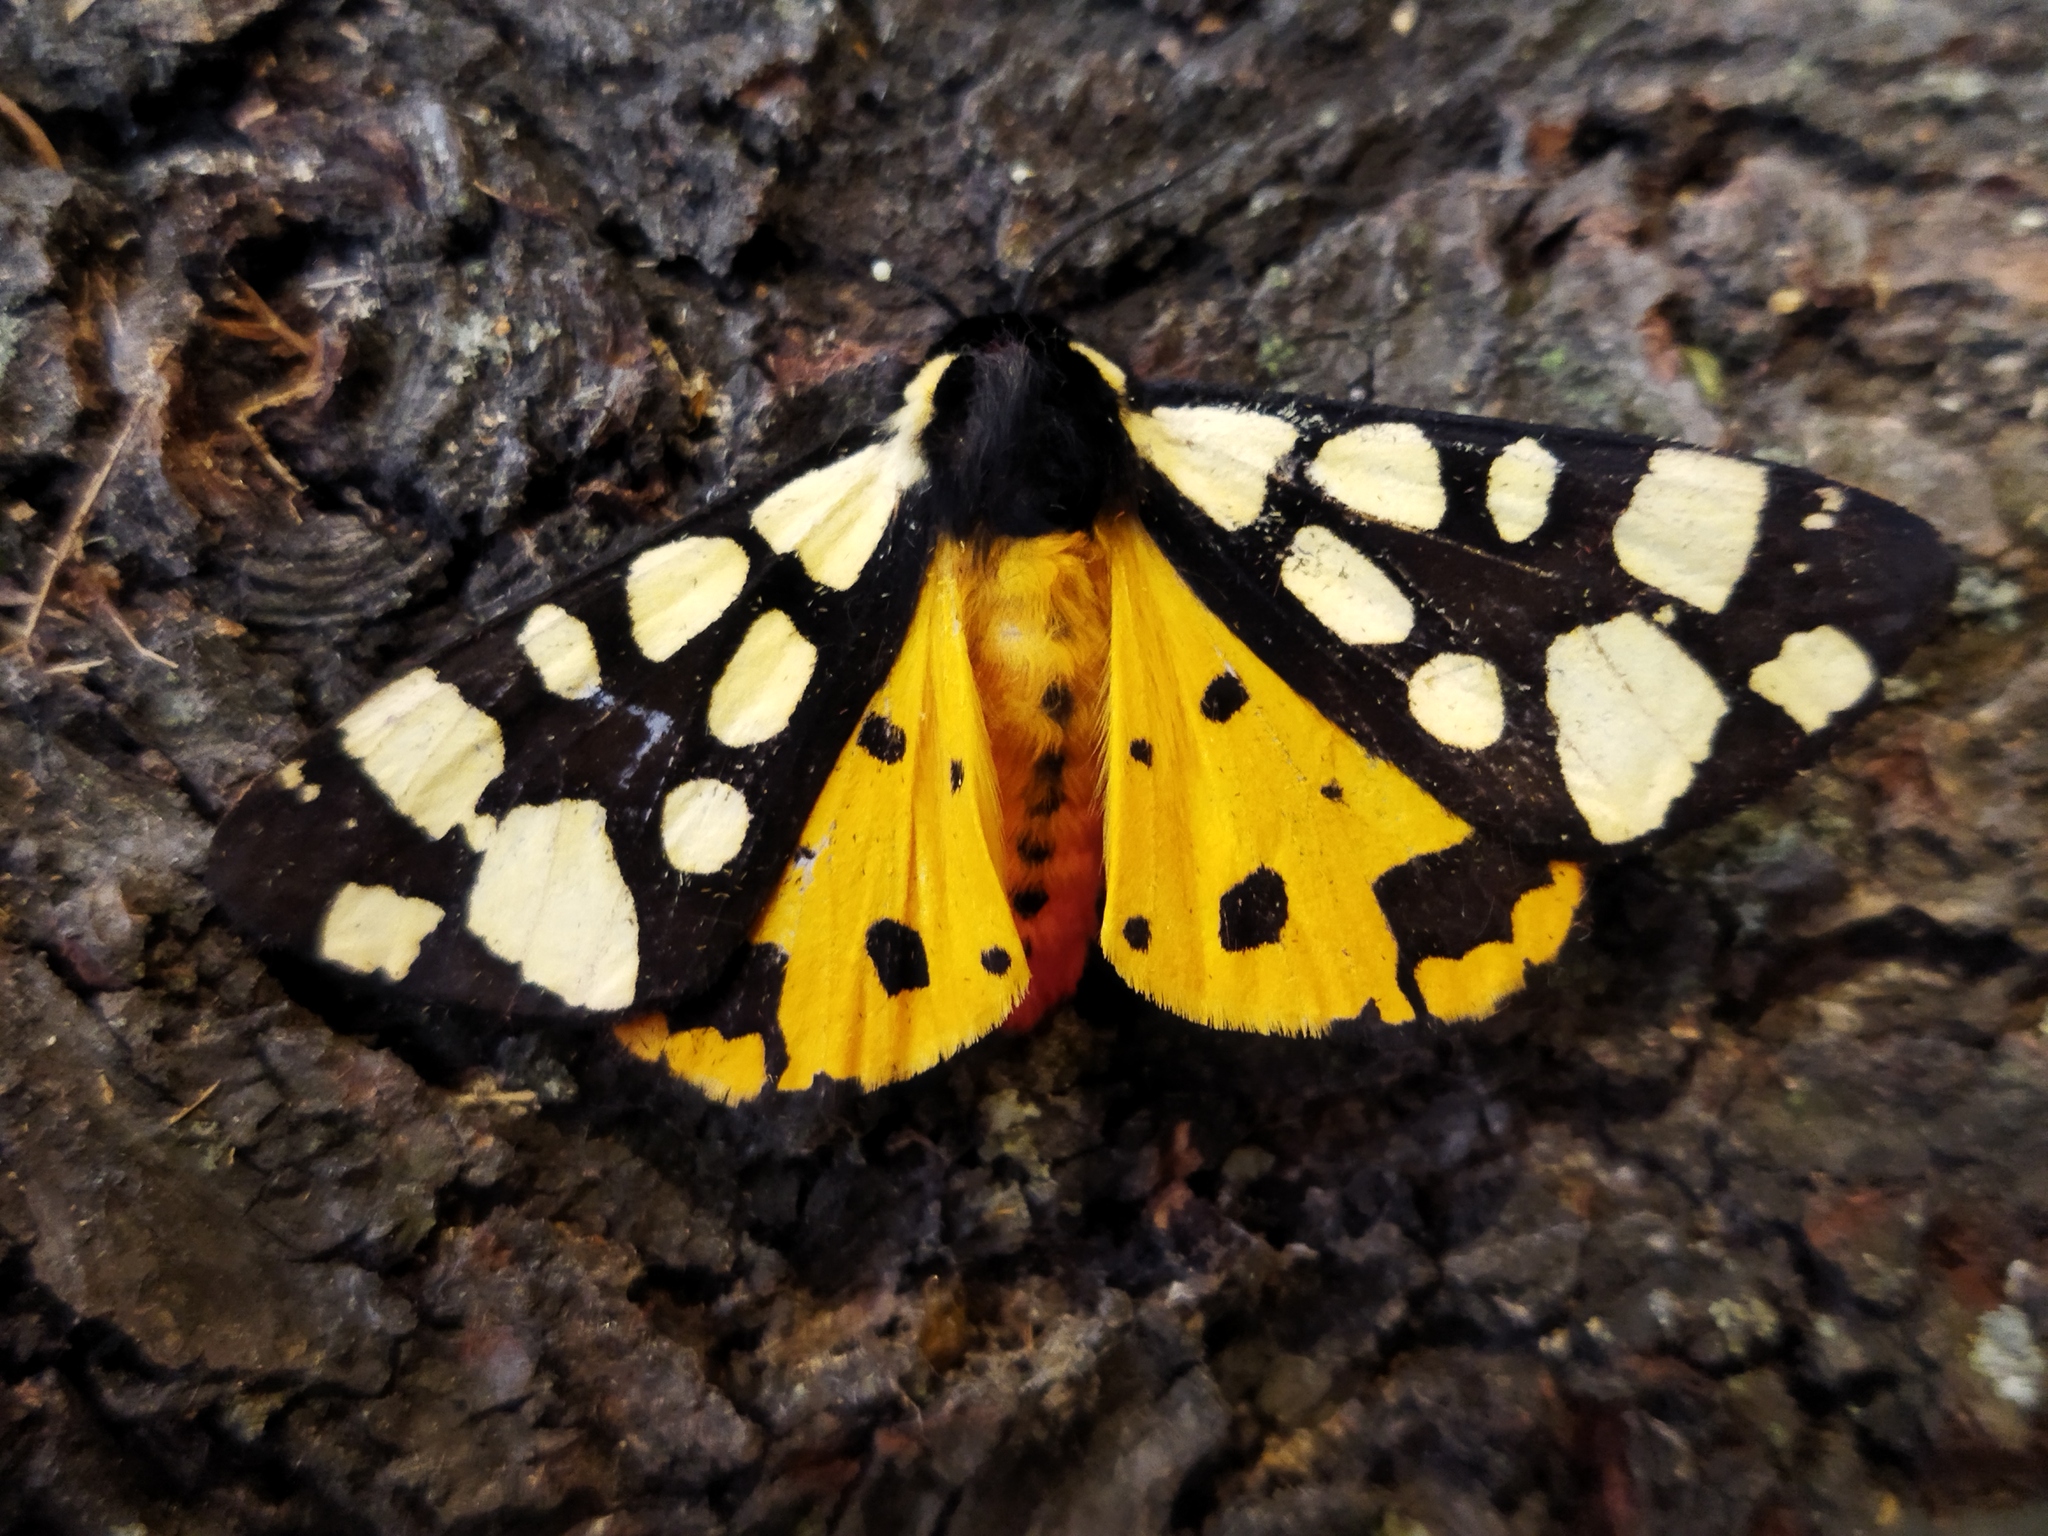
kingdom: Animalia
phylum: Arthropoda
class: Insecta
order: Lepidoptera
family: Erebidae
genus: Epicallia
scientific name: Epicallia villica
